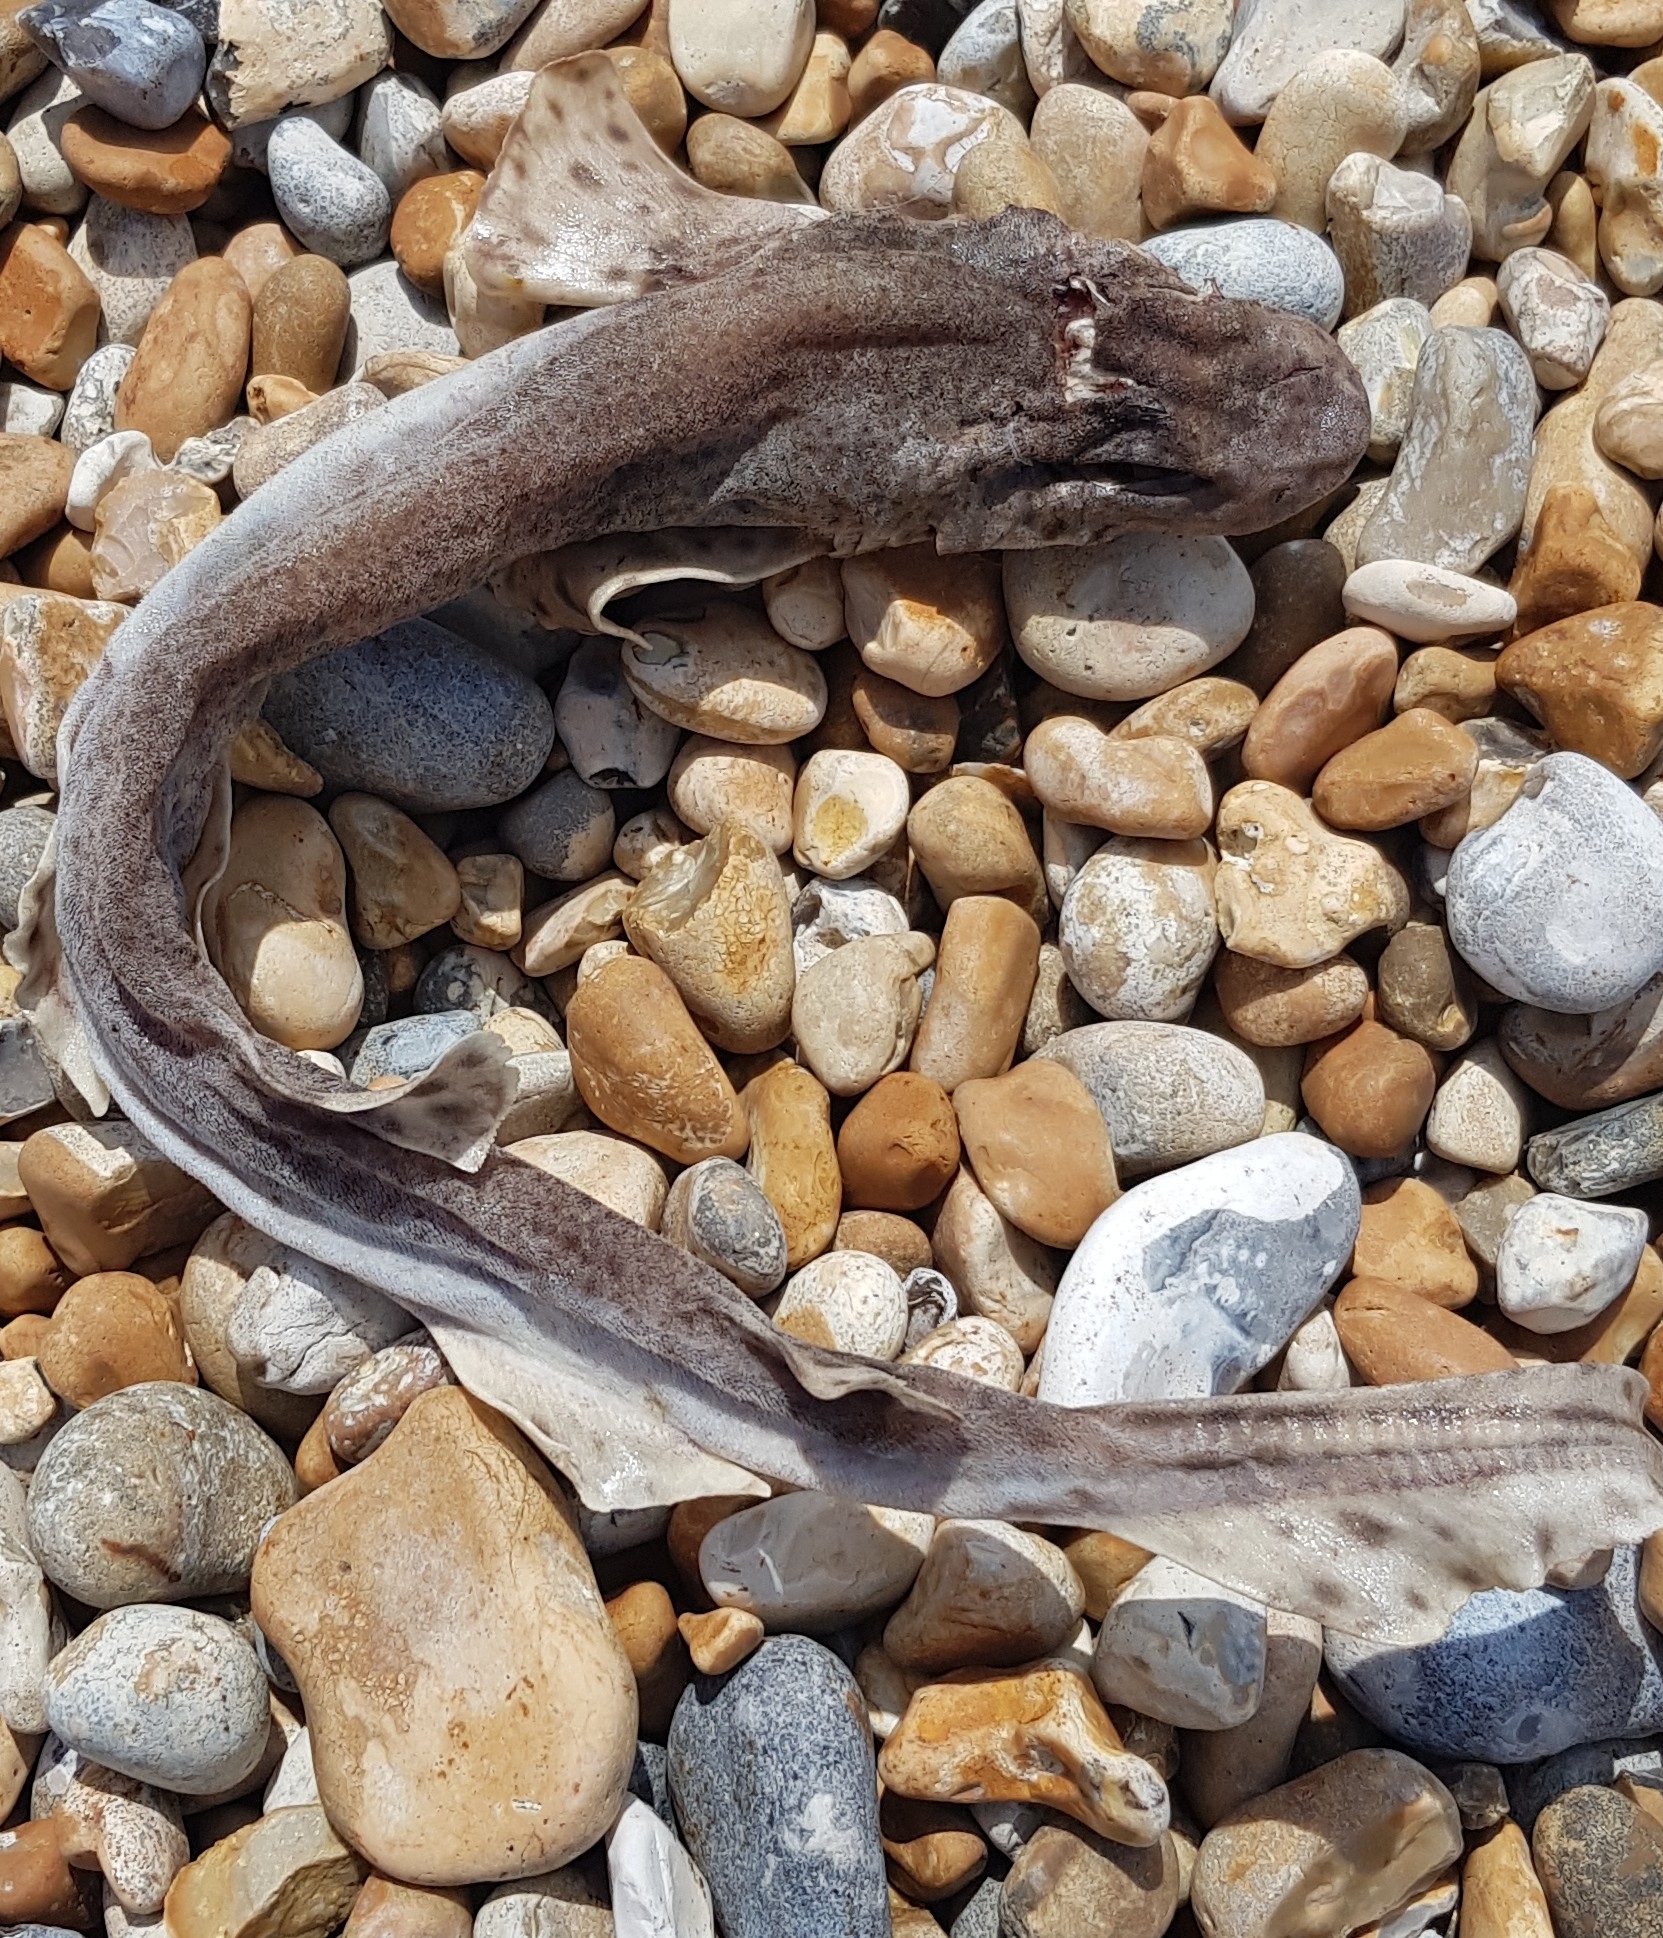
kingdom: Animalia
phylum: Chordata
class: Elasmobranchii
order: Carcharhiniformes
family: Scyliorhinidae
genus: Scyliorhinus
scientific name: Scyliorhinus canicula
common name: Lesser spotted dogfish
